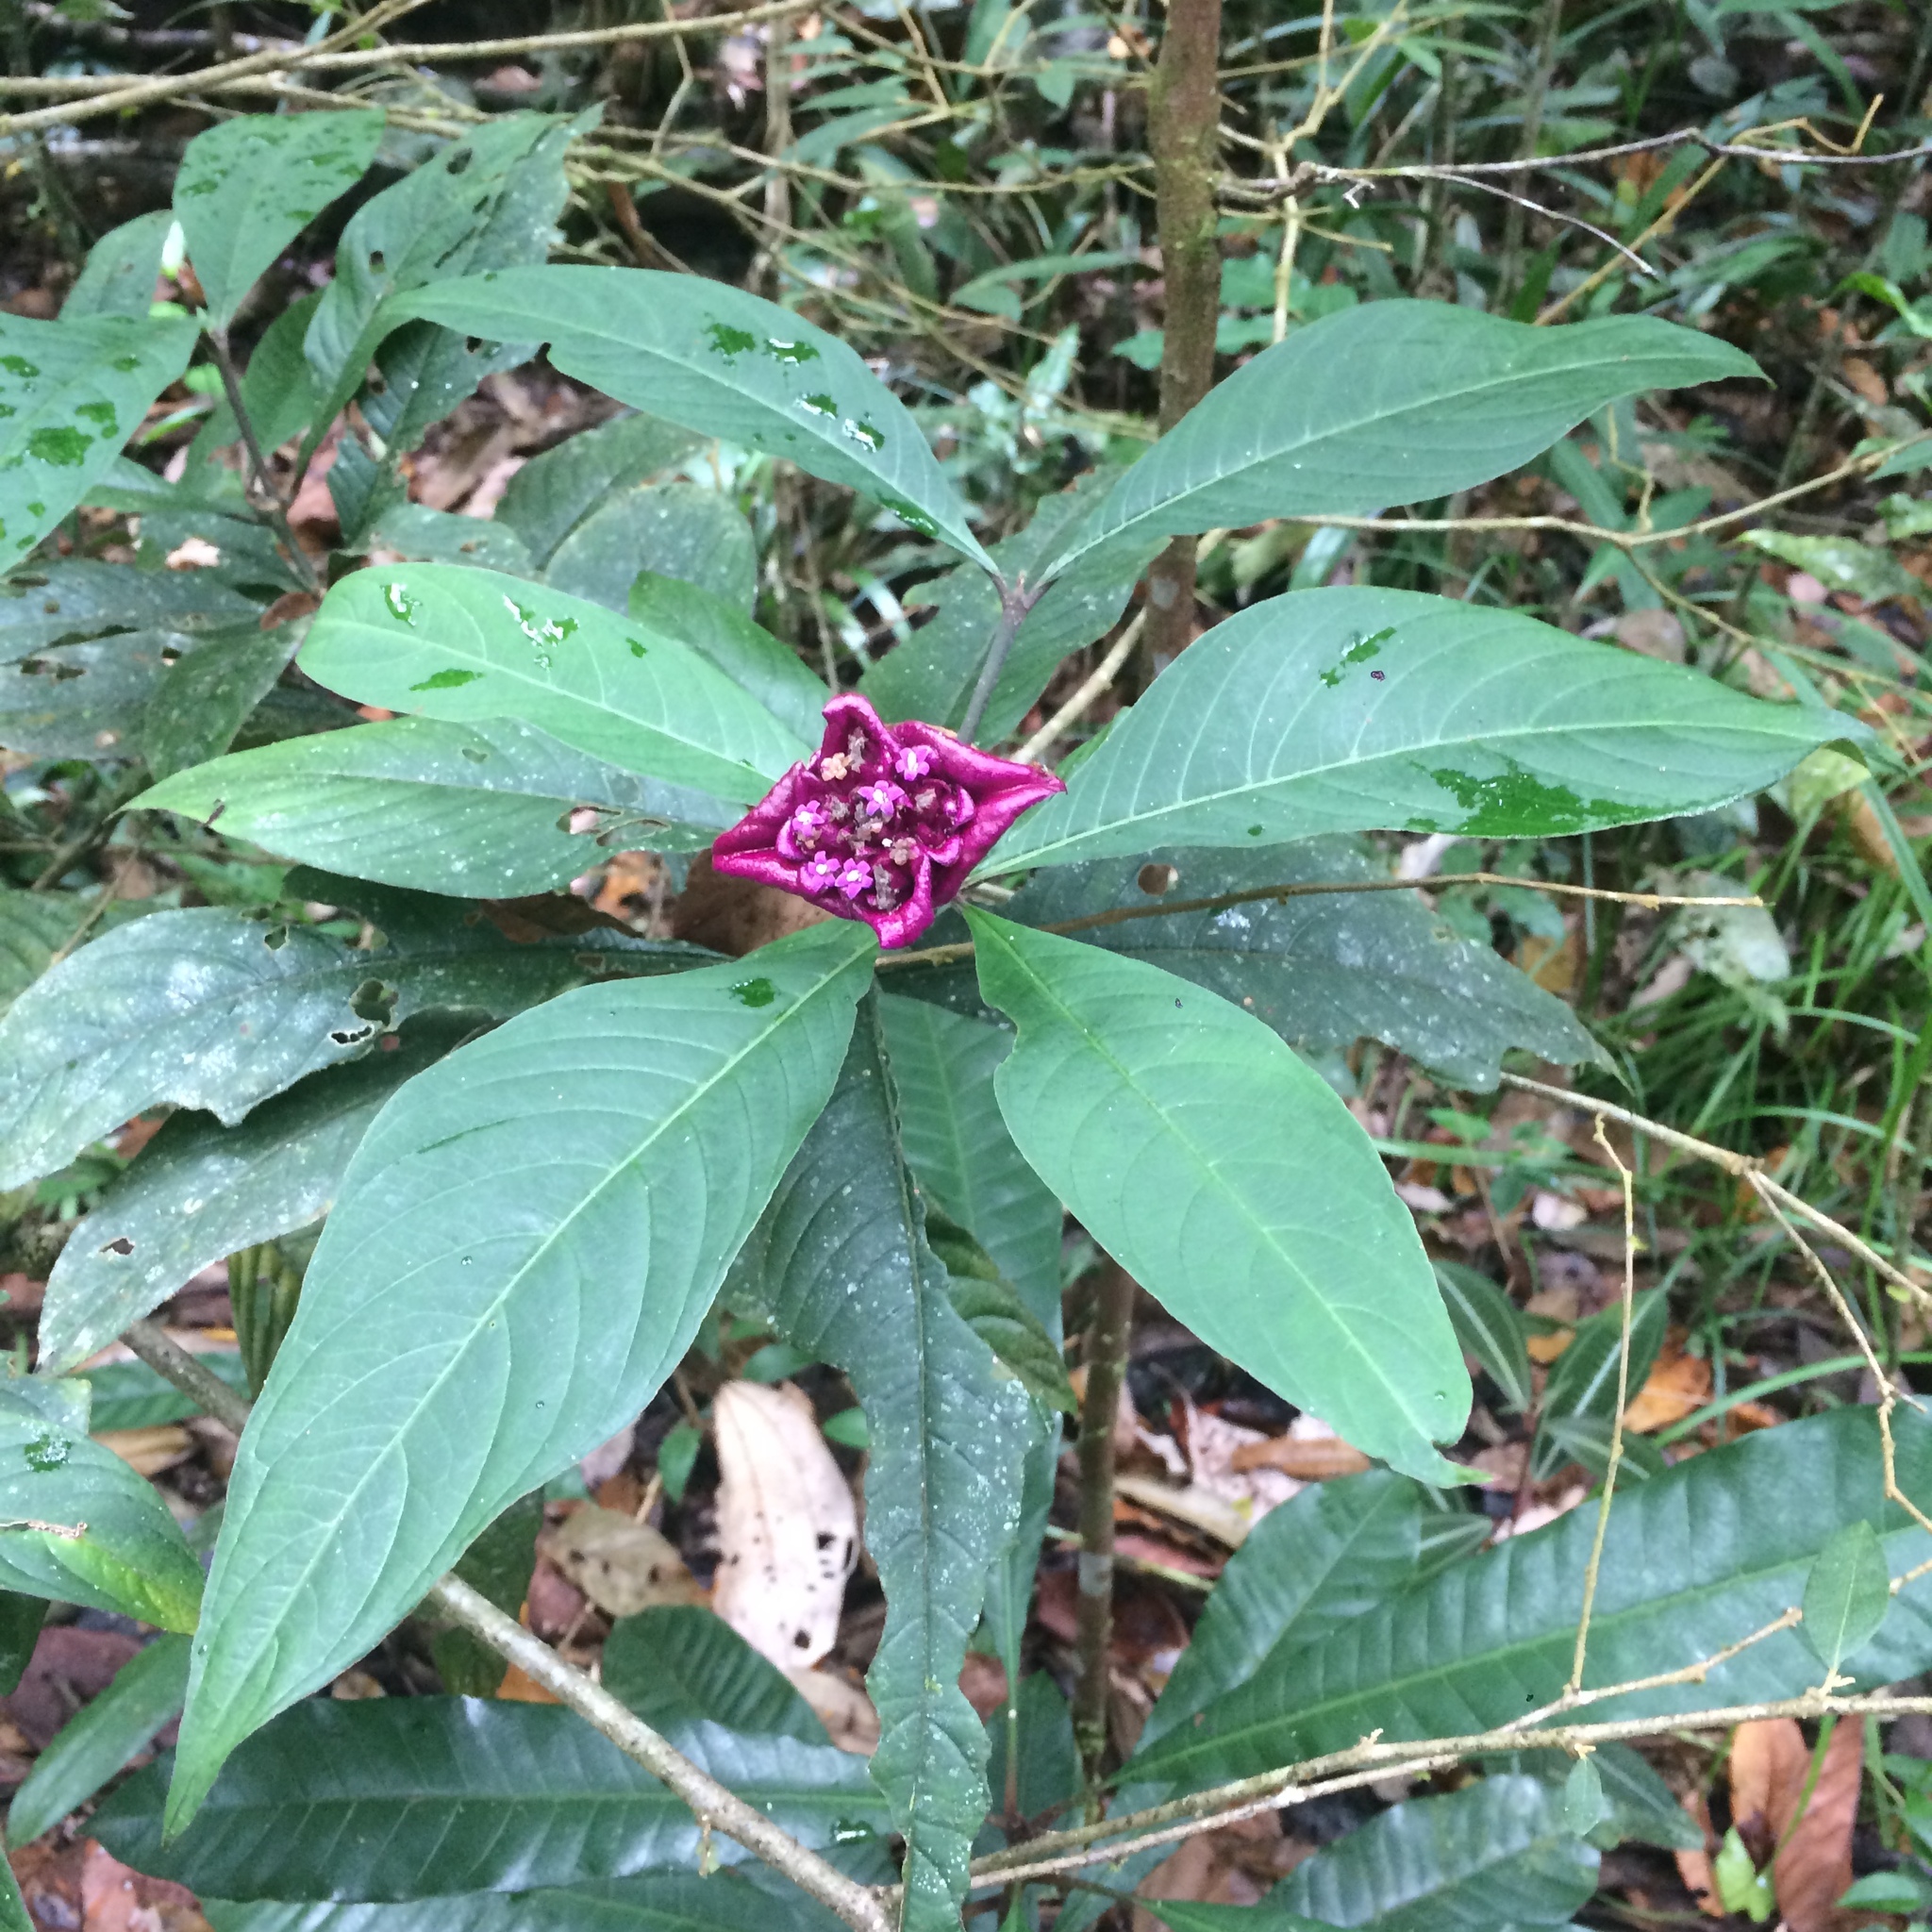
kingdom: Plantae
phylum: Tracheophyta
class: Magnoliopsida
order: Gentianales
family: Rubiaceae
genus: Palicourea
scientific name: Palicourea colorata
